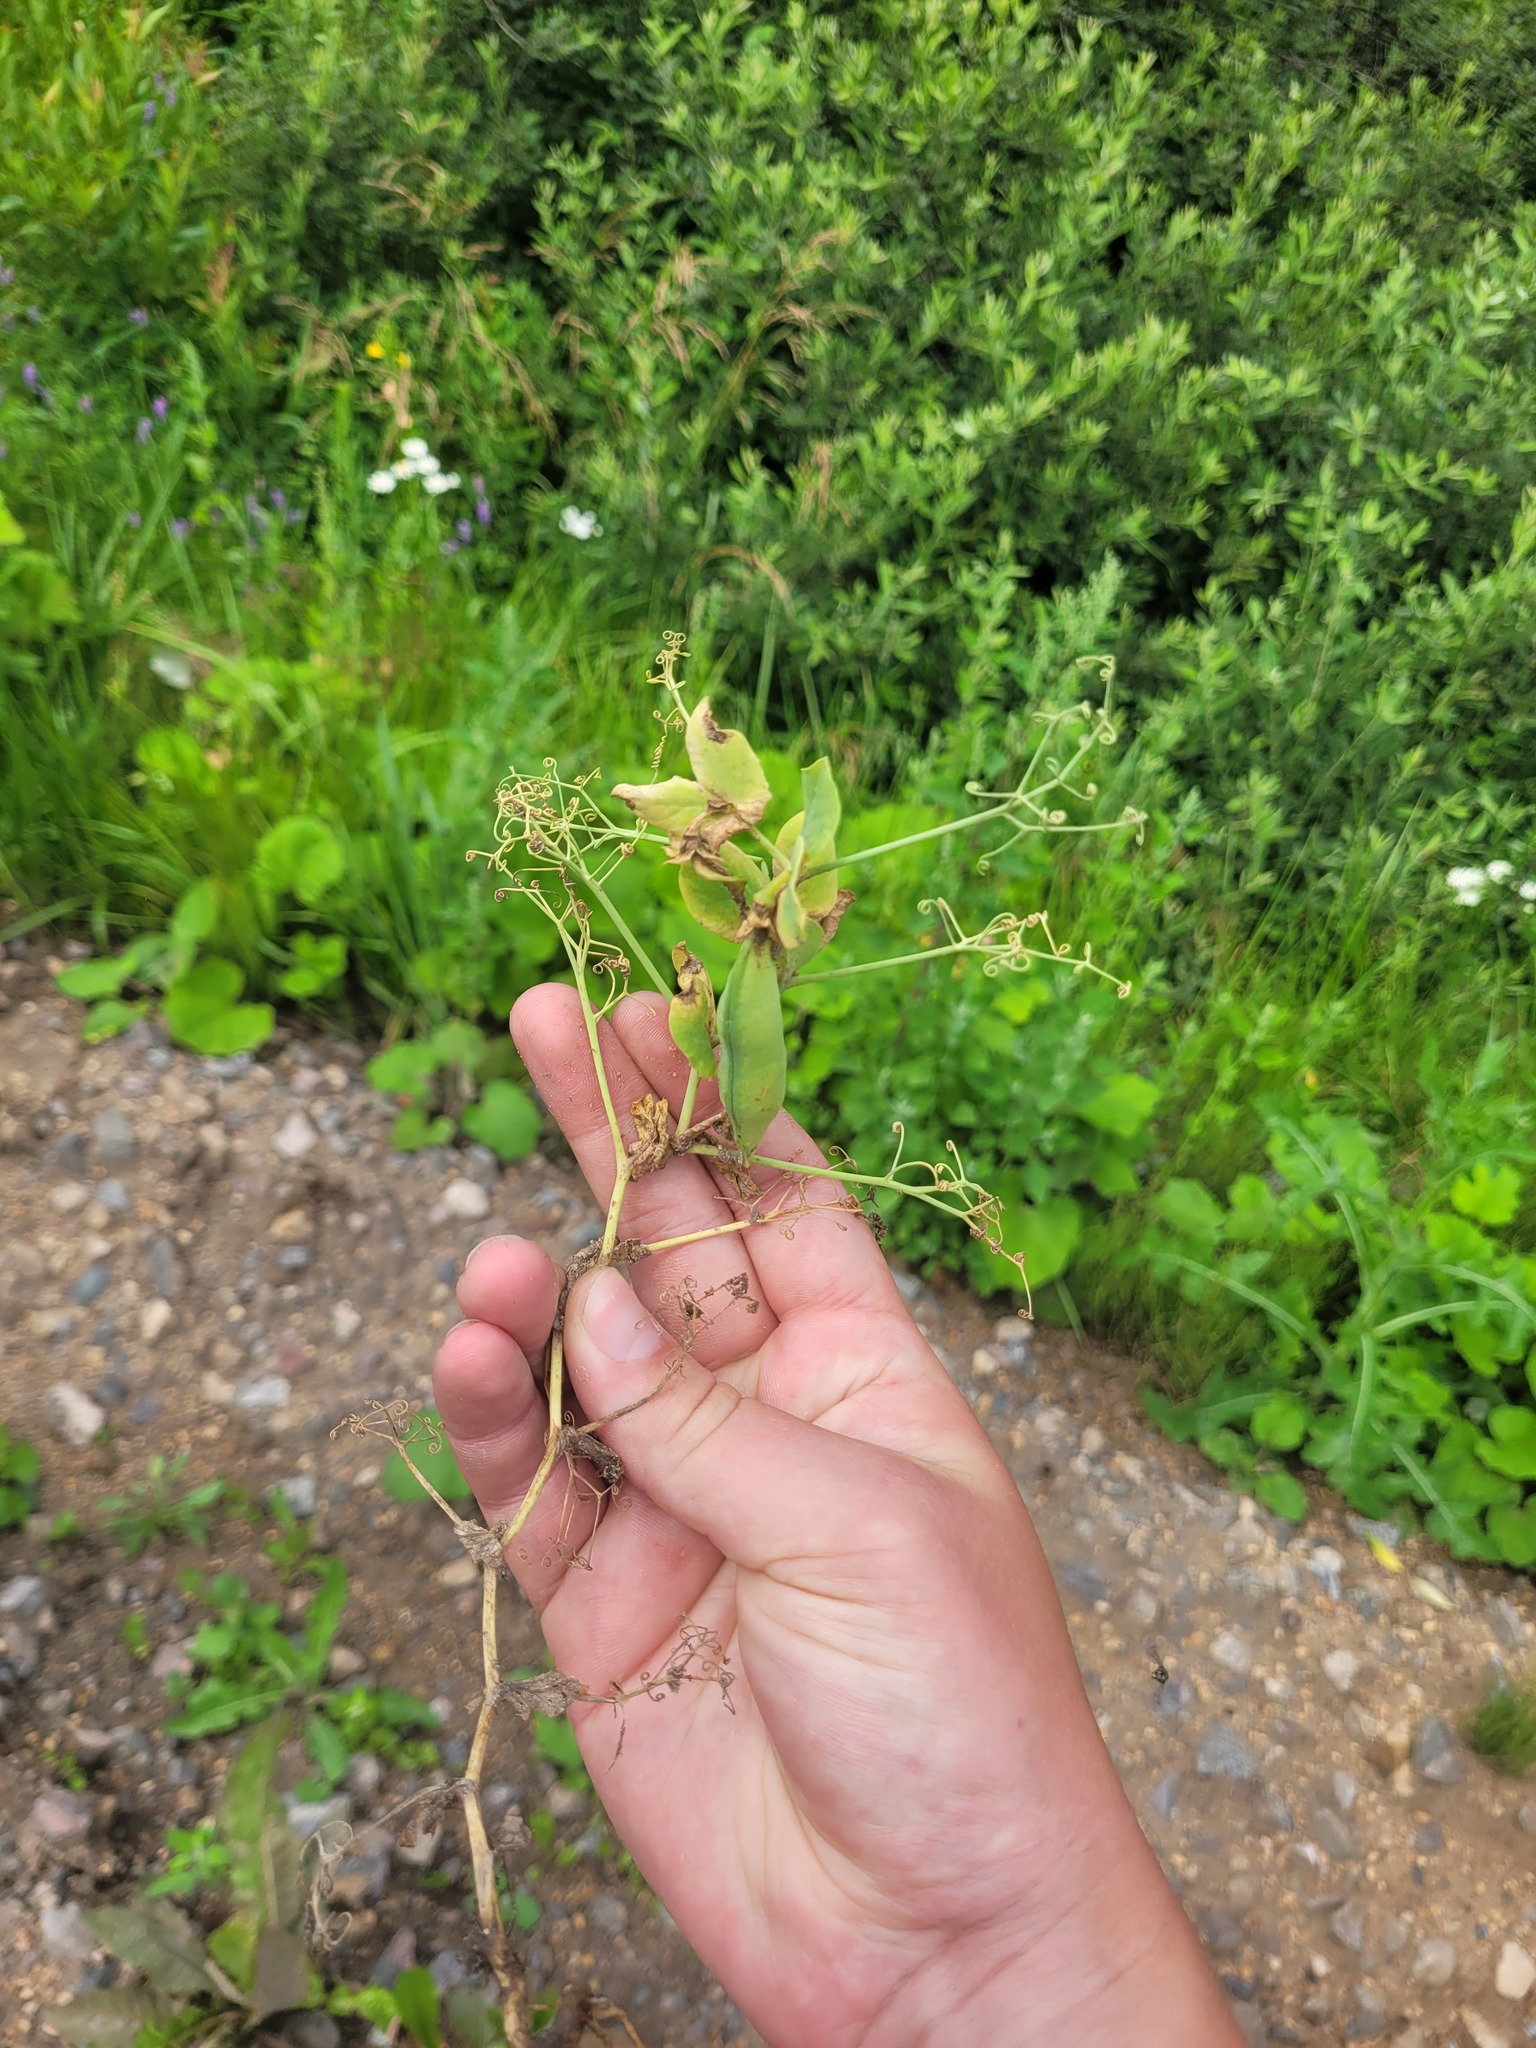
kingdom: Plantae
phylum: Tracheophyta
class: Magnoliopsida
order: Fabales
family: Fabaceae
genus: Lathyrus
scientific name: Lathyrus oleraceus
